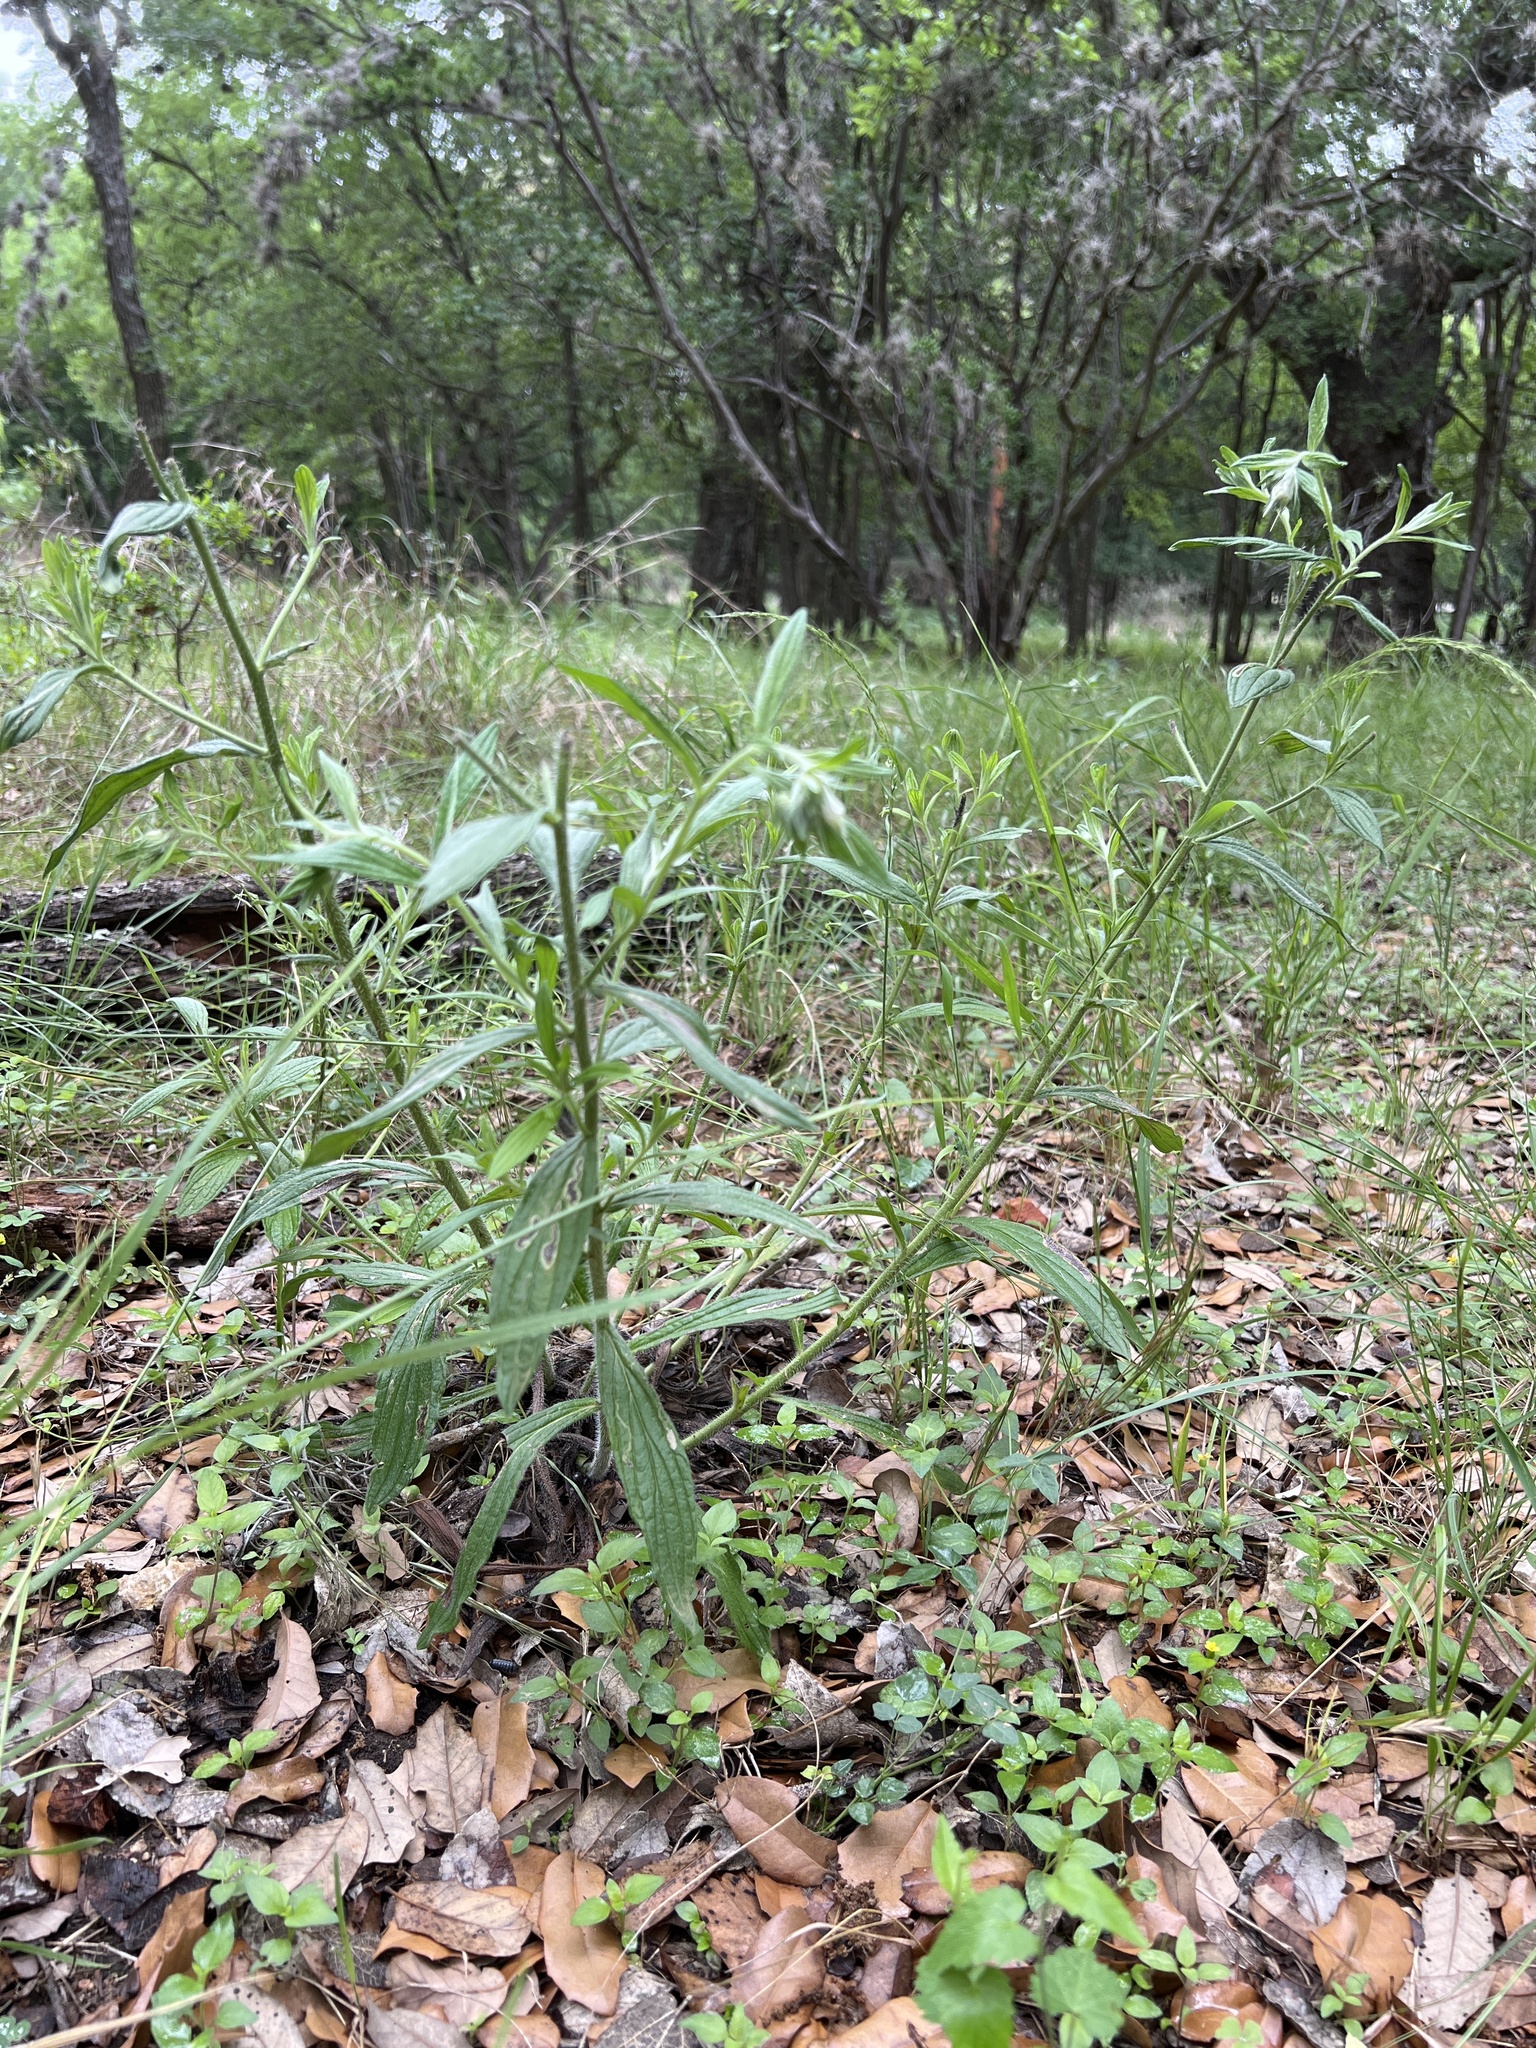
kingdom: Plantae
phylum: Tracheophyta
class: Magnoliopsida
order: Boraginales
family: Boraginaceae
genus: Lithospermum
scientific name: Lithospermum caroliniense
